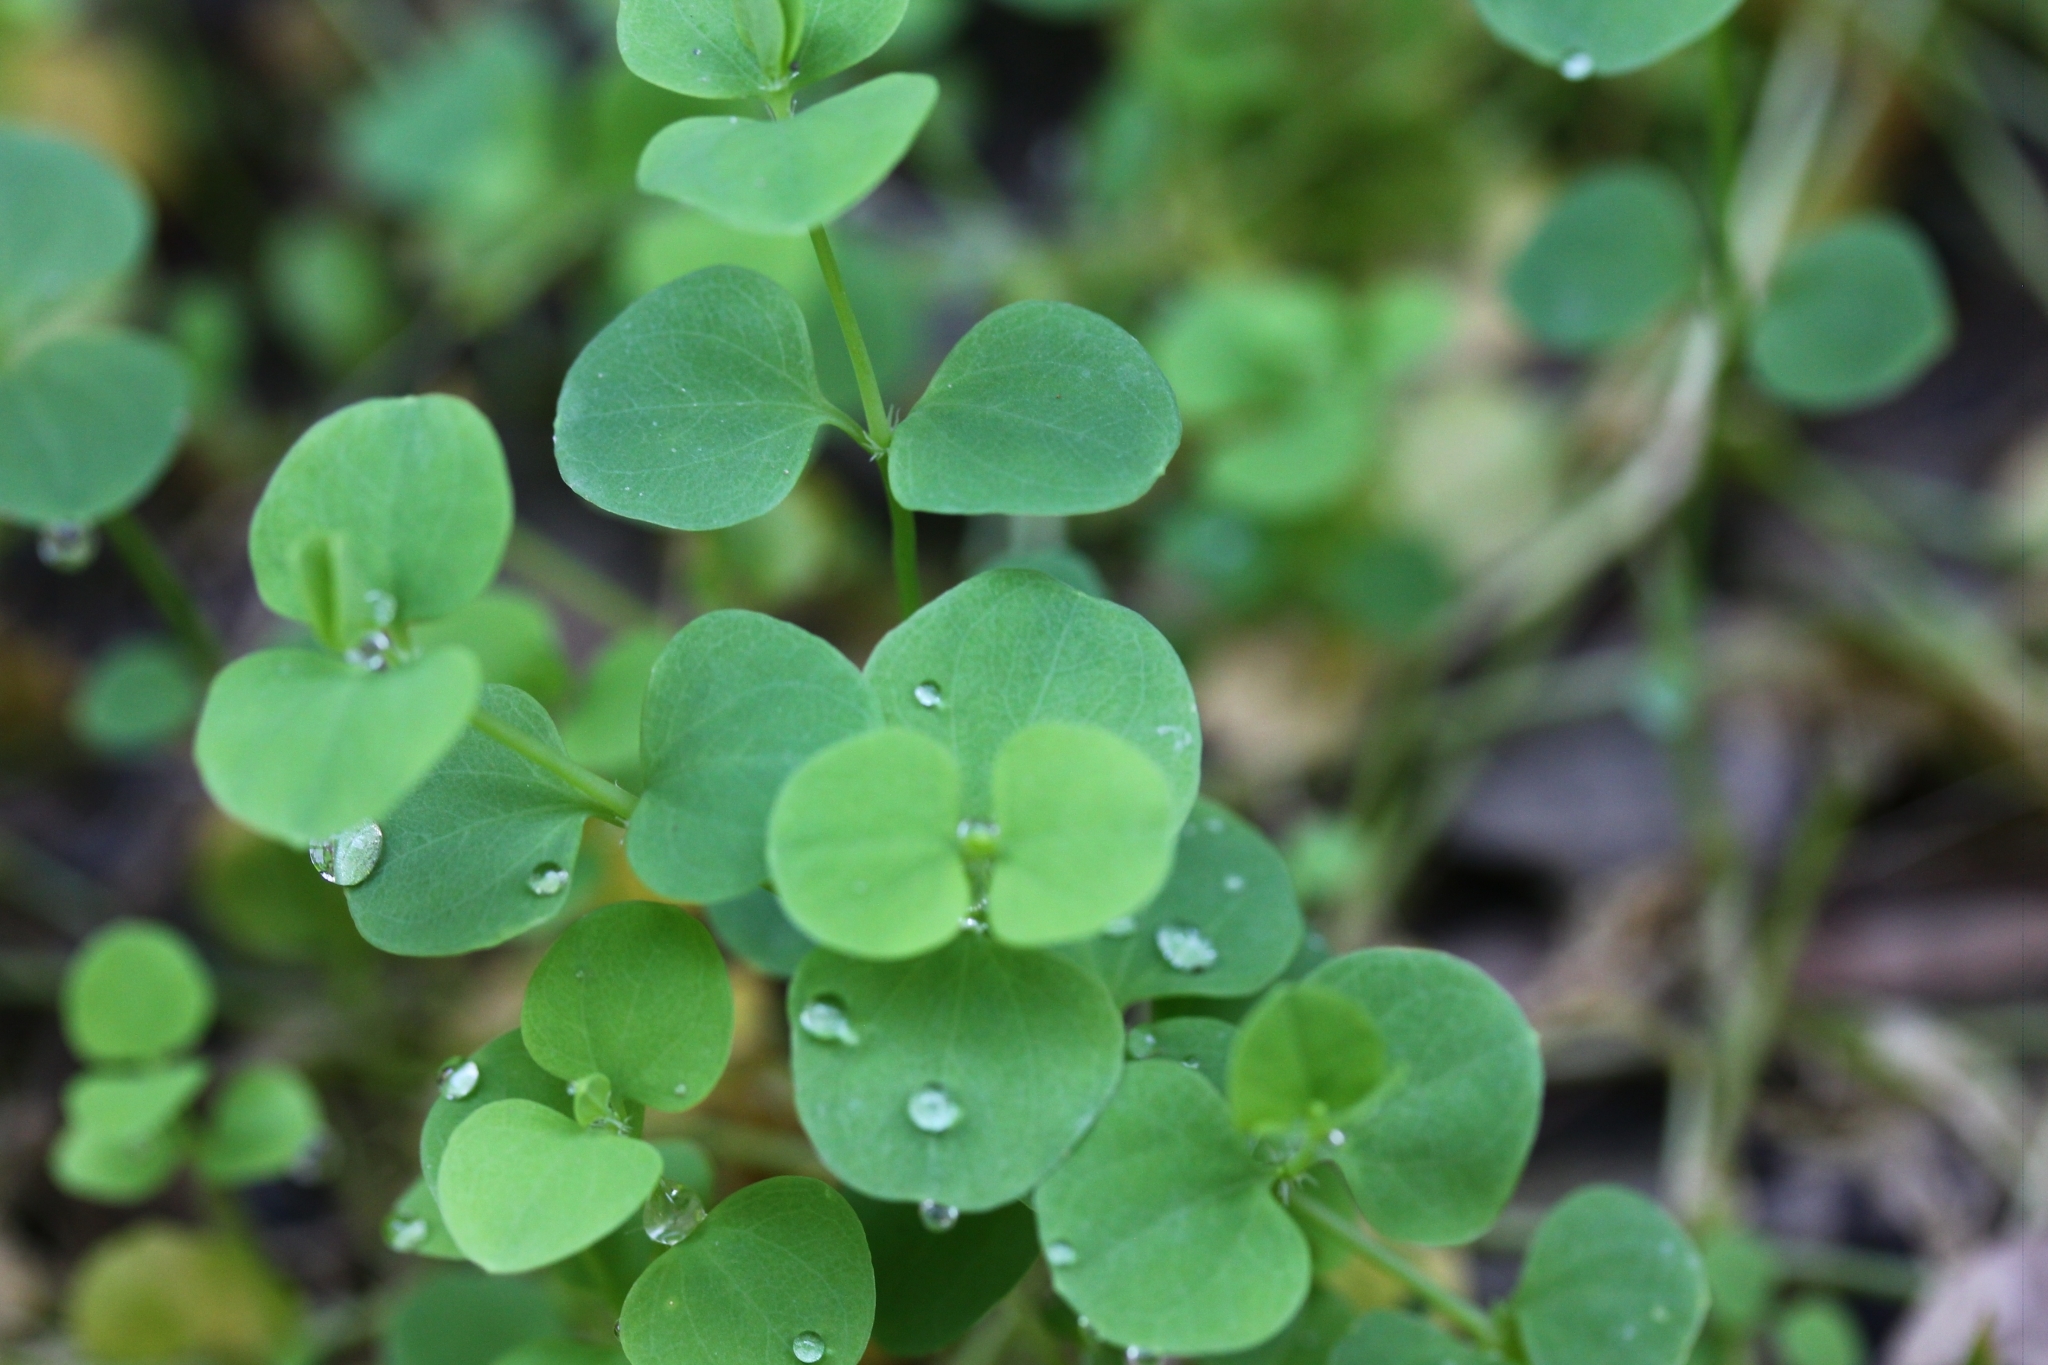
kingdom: Plantae
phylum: Tracheophyta
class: Magnoliopsida
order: Caryophyllales
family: Caryophyllaceae
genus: Drymaria
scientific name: Drymaria cordata
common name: Whitesnow
